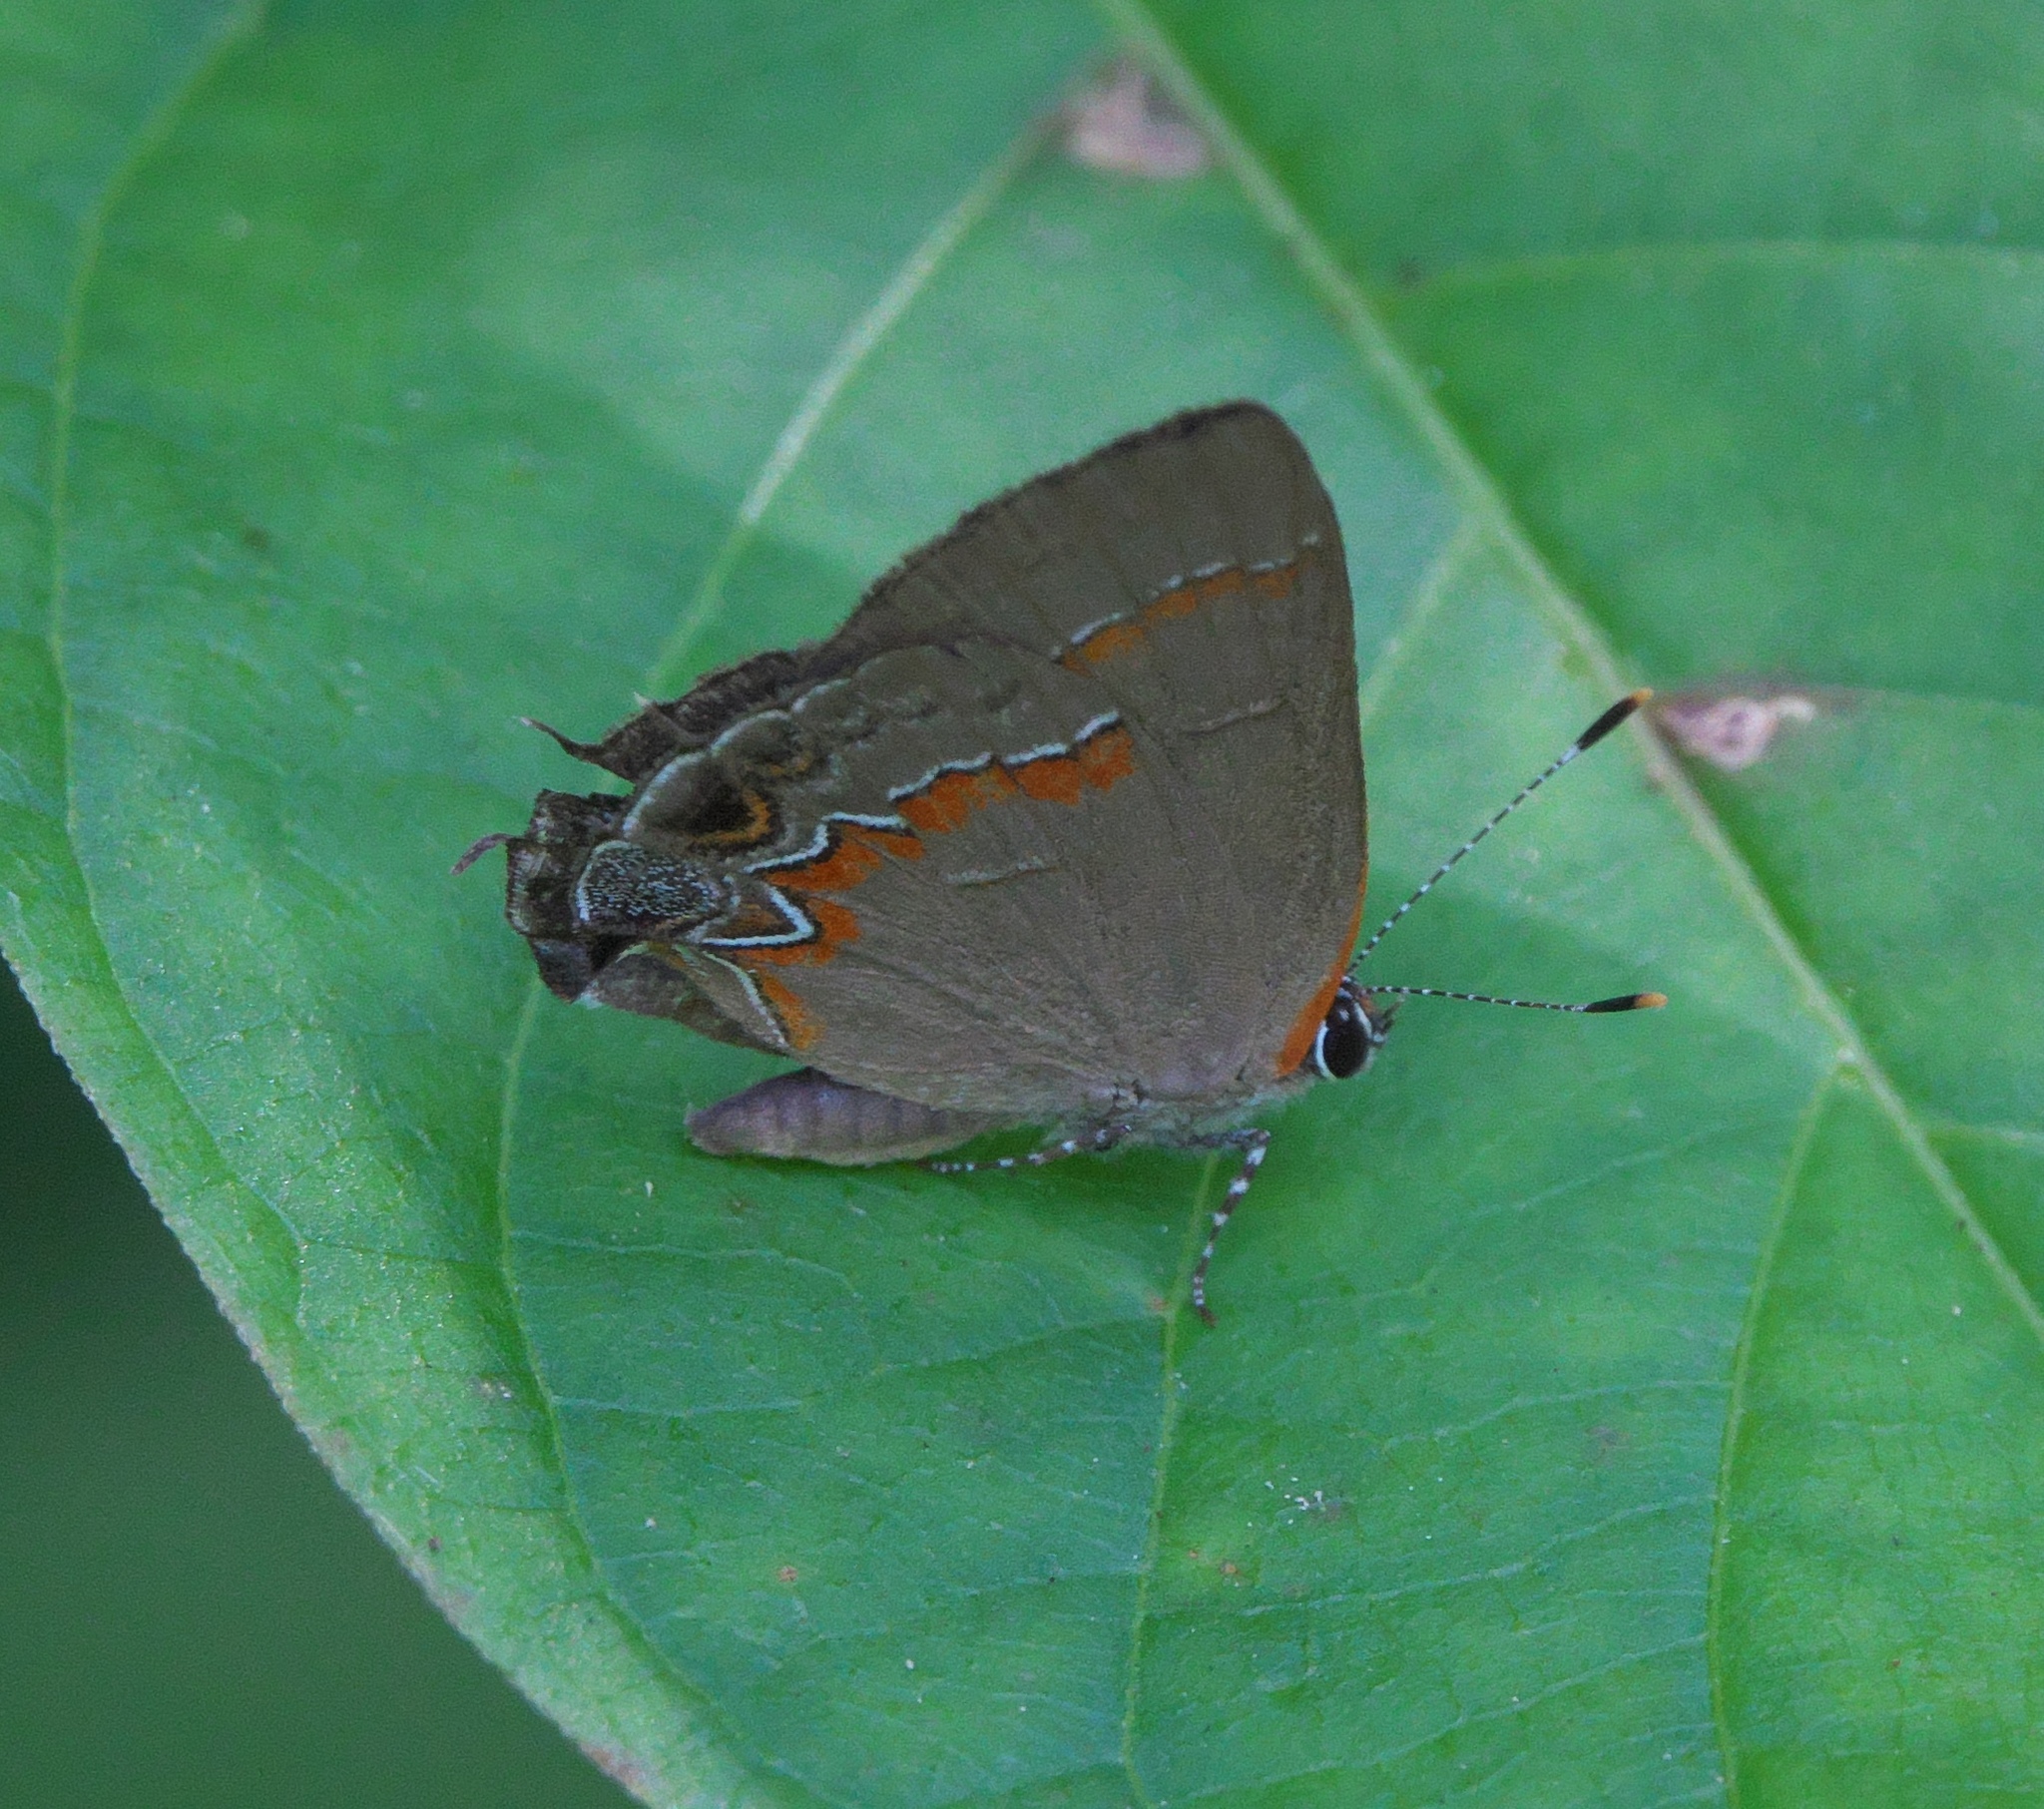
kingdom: Animalia
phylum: Arthropoda
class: Insecta
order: Lepidoptera
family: Lycaenidae
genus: Calycopis
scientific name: Calycopis cecrops
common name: Red-banded hairstreak
